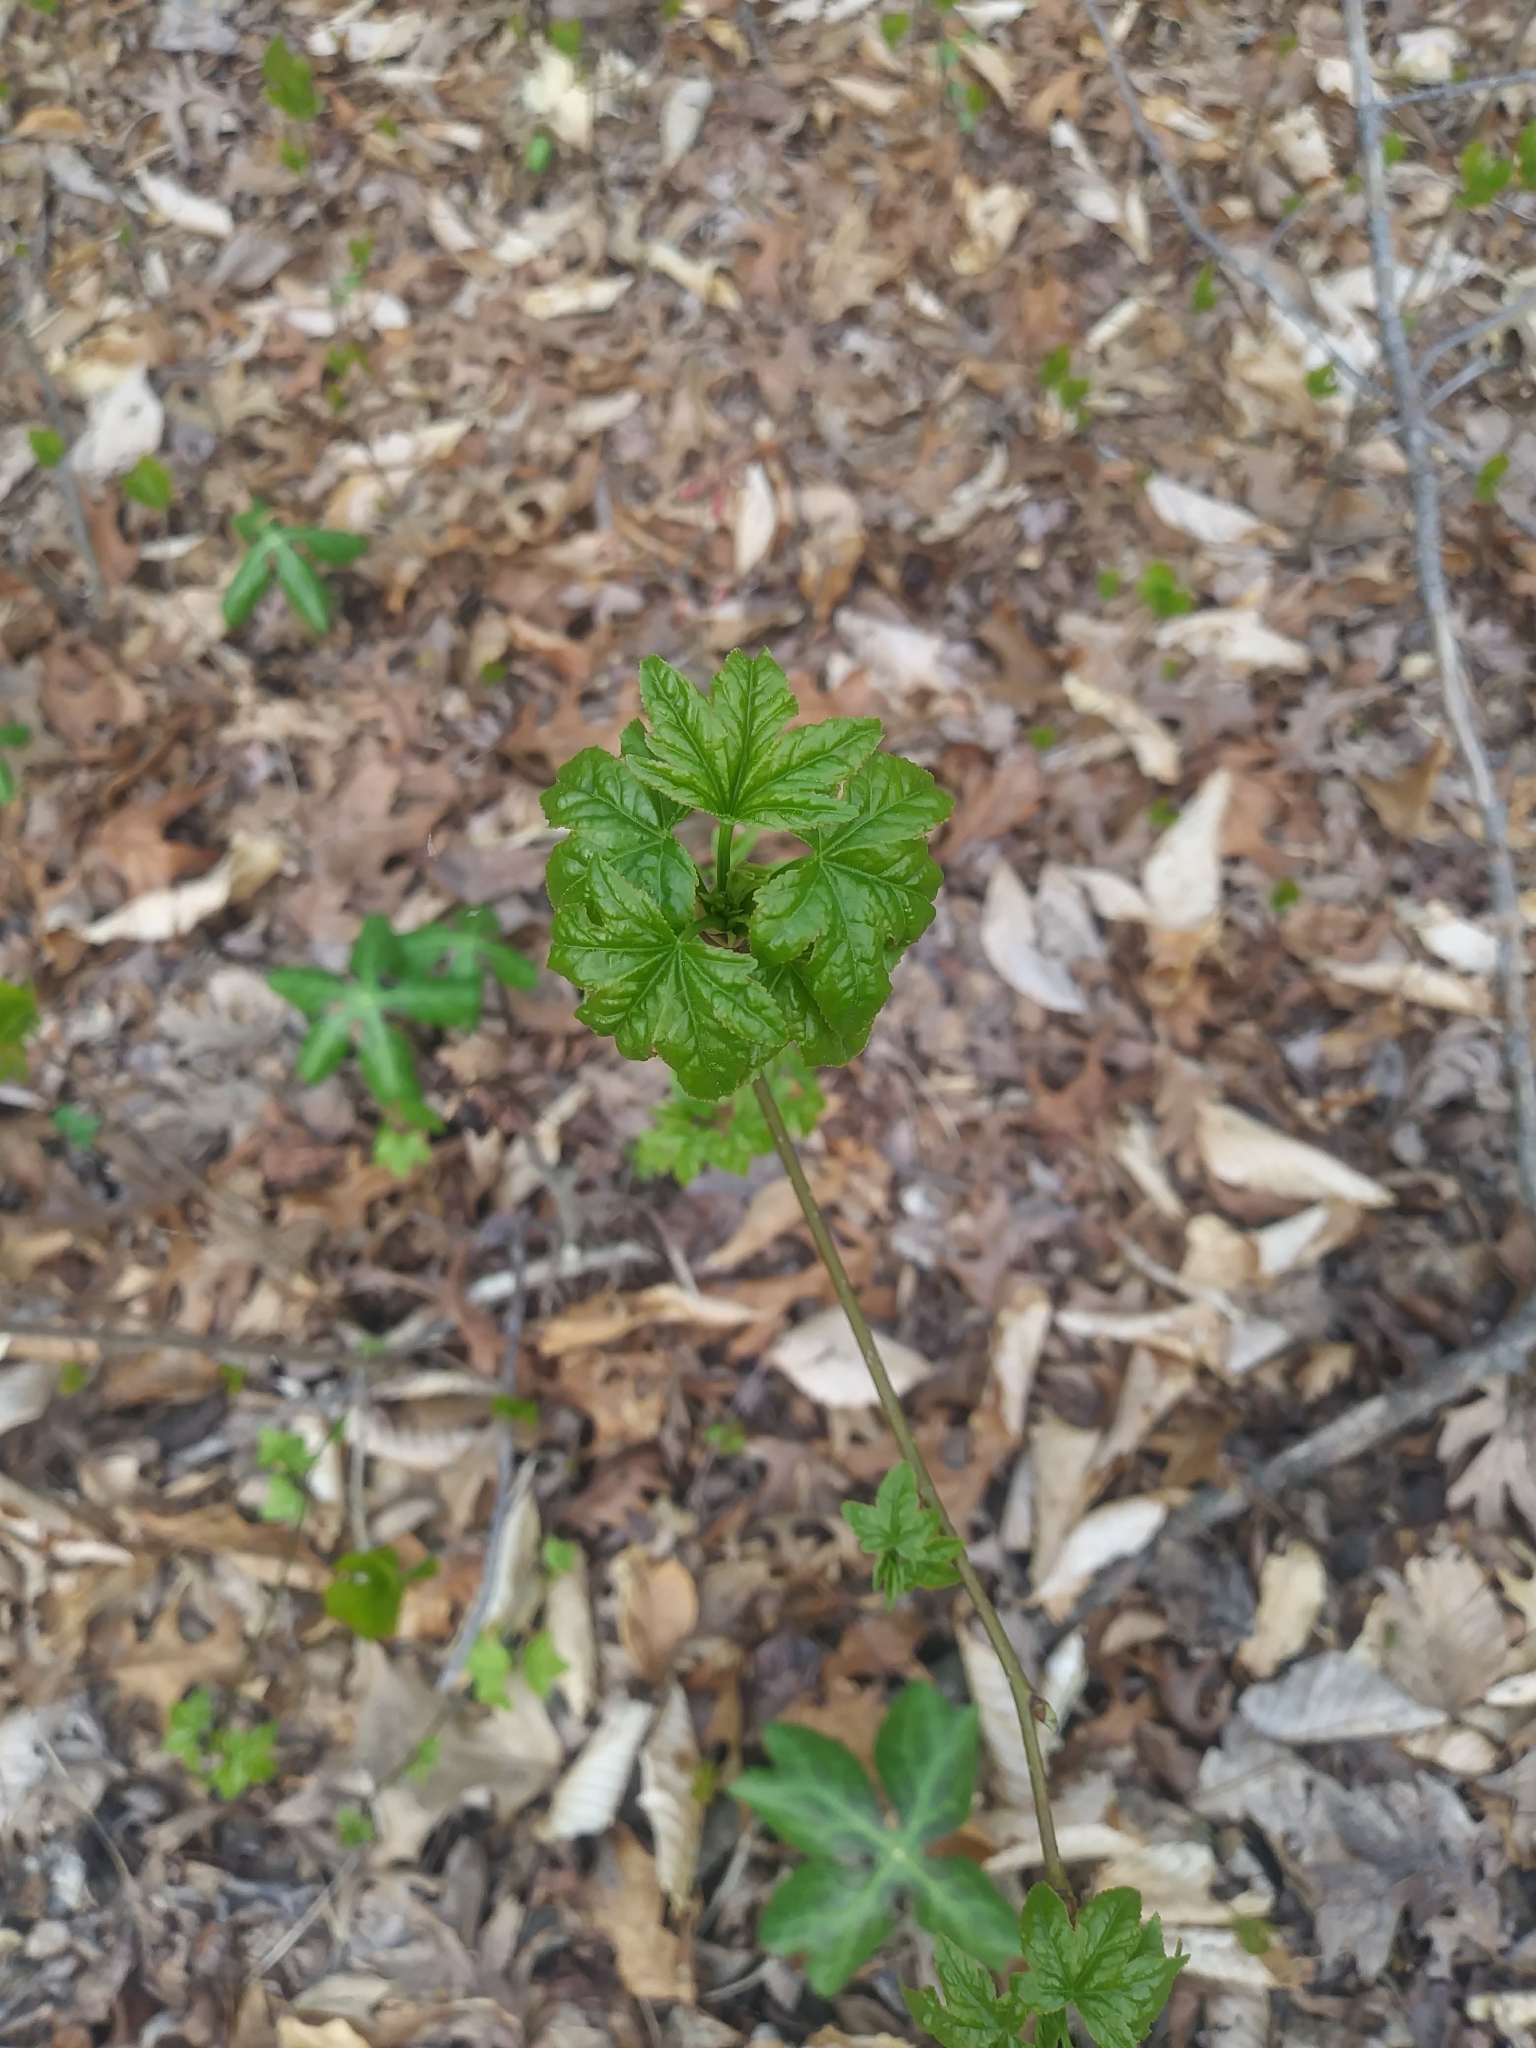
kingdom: Plantae
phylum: Tracheophyta
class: Magnoliopsida
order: Saxifragales
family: Altingiaceae
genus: Liquidambar
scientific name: Liquidambar styraciflua
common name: Sweet gum
